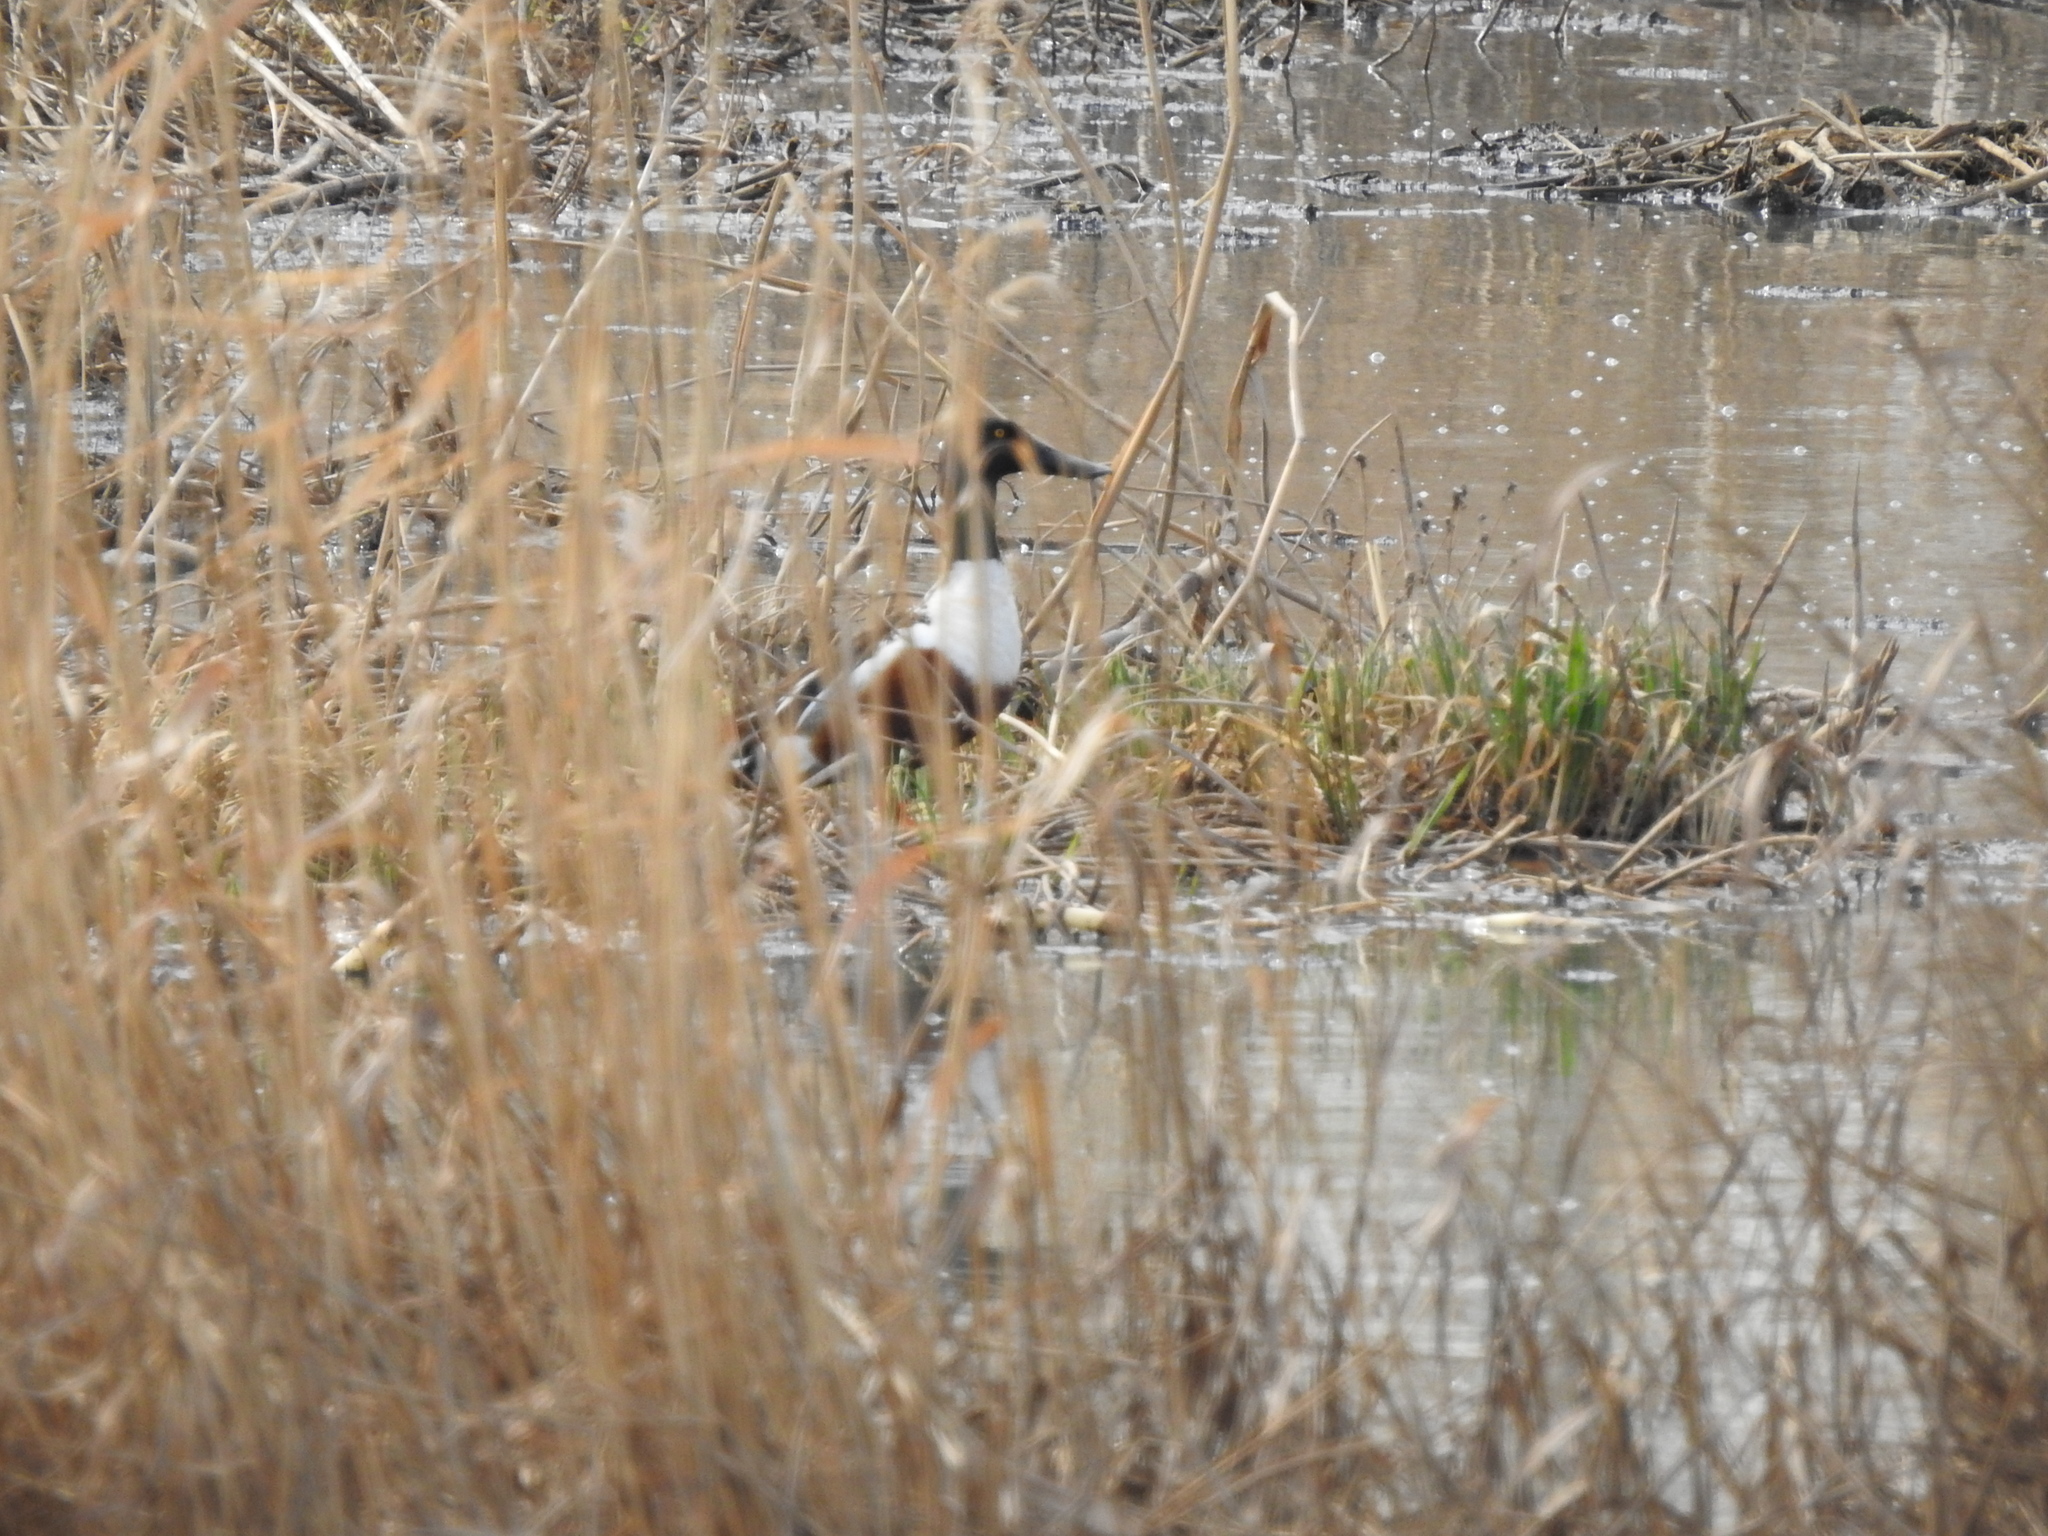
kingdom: Animalia
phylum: Chordata
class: Aves
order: Anseriformes
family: Anatidae
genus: Spatula
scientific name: Spatula clypeata
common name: Northern shoveler
